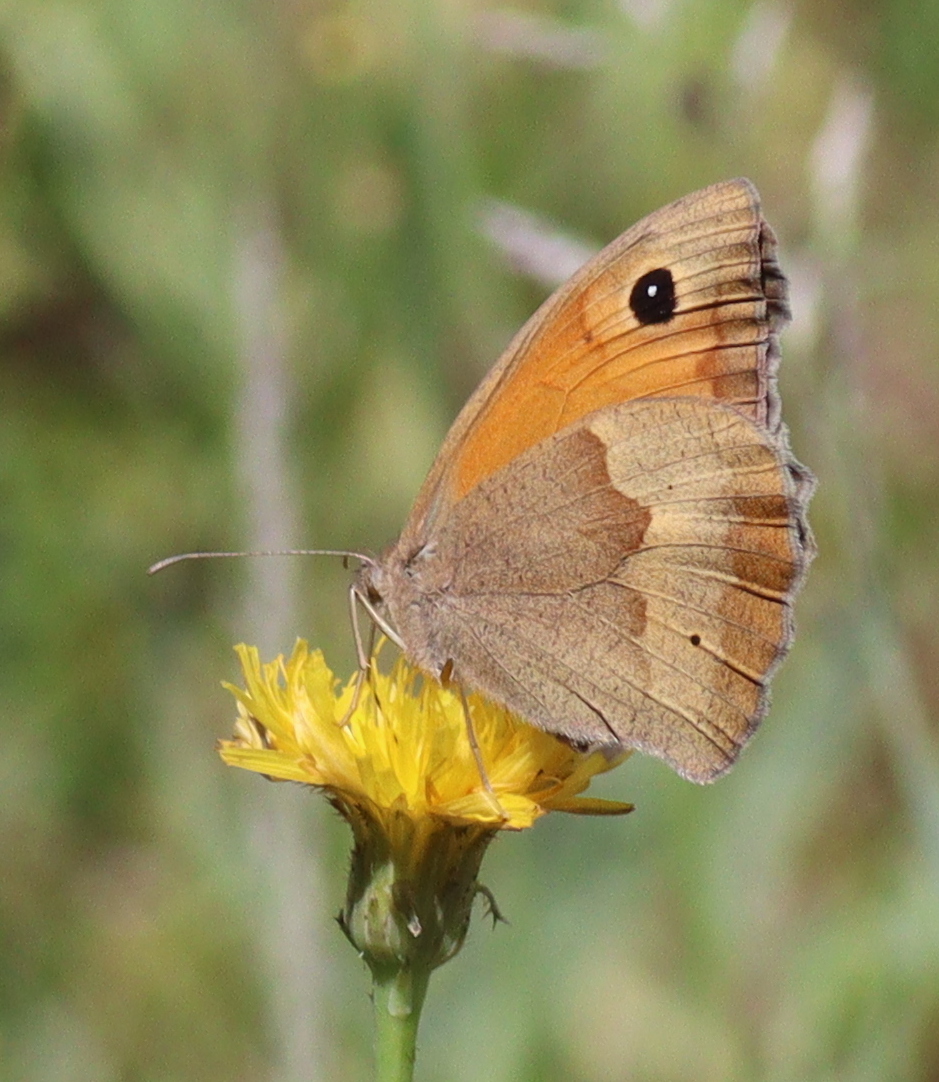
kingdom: Animalia
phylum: Arthropoda
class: Insecta
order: Lepidoptera
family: Nymphalidae
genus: Maniola
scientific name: Maniola jurtina
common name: Meadow brown
